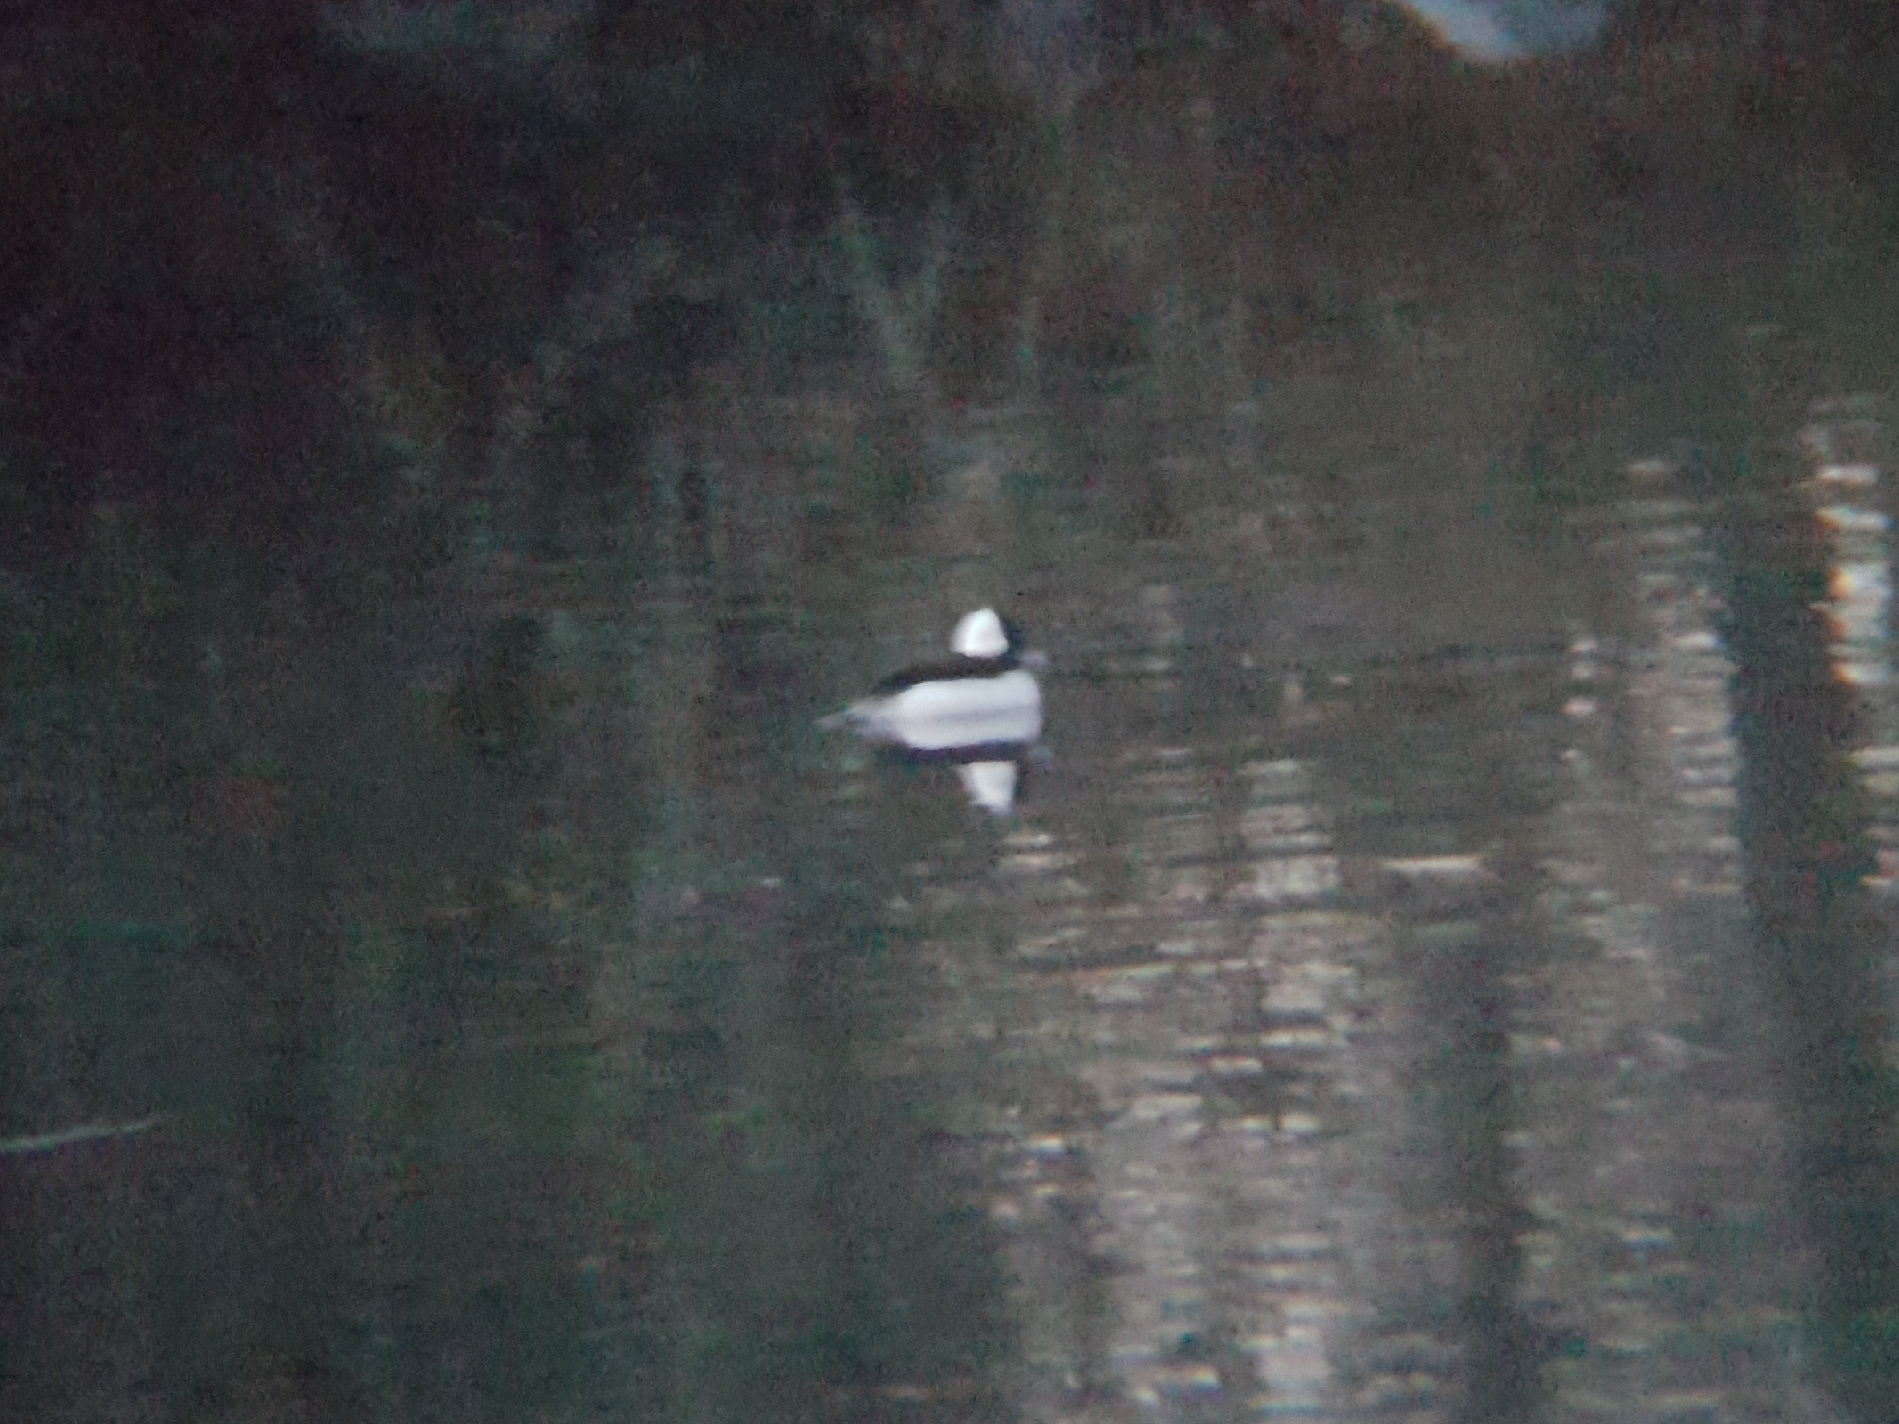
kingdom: Animalia
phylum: Chordata
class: Aves
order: Anseriformes
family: Anatidae
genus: Bucephala
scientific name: Bucephala albeola
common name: Bufflehead
